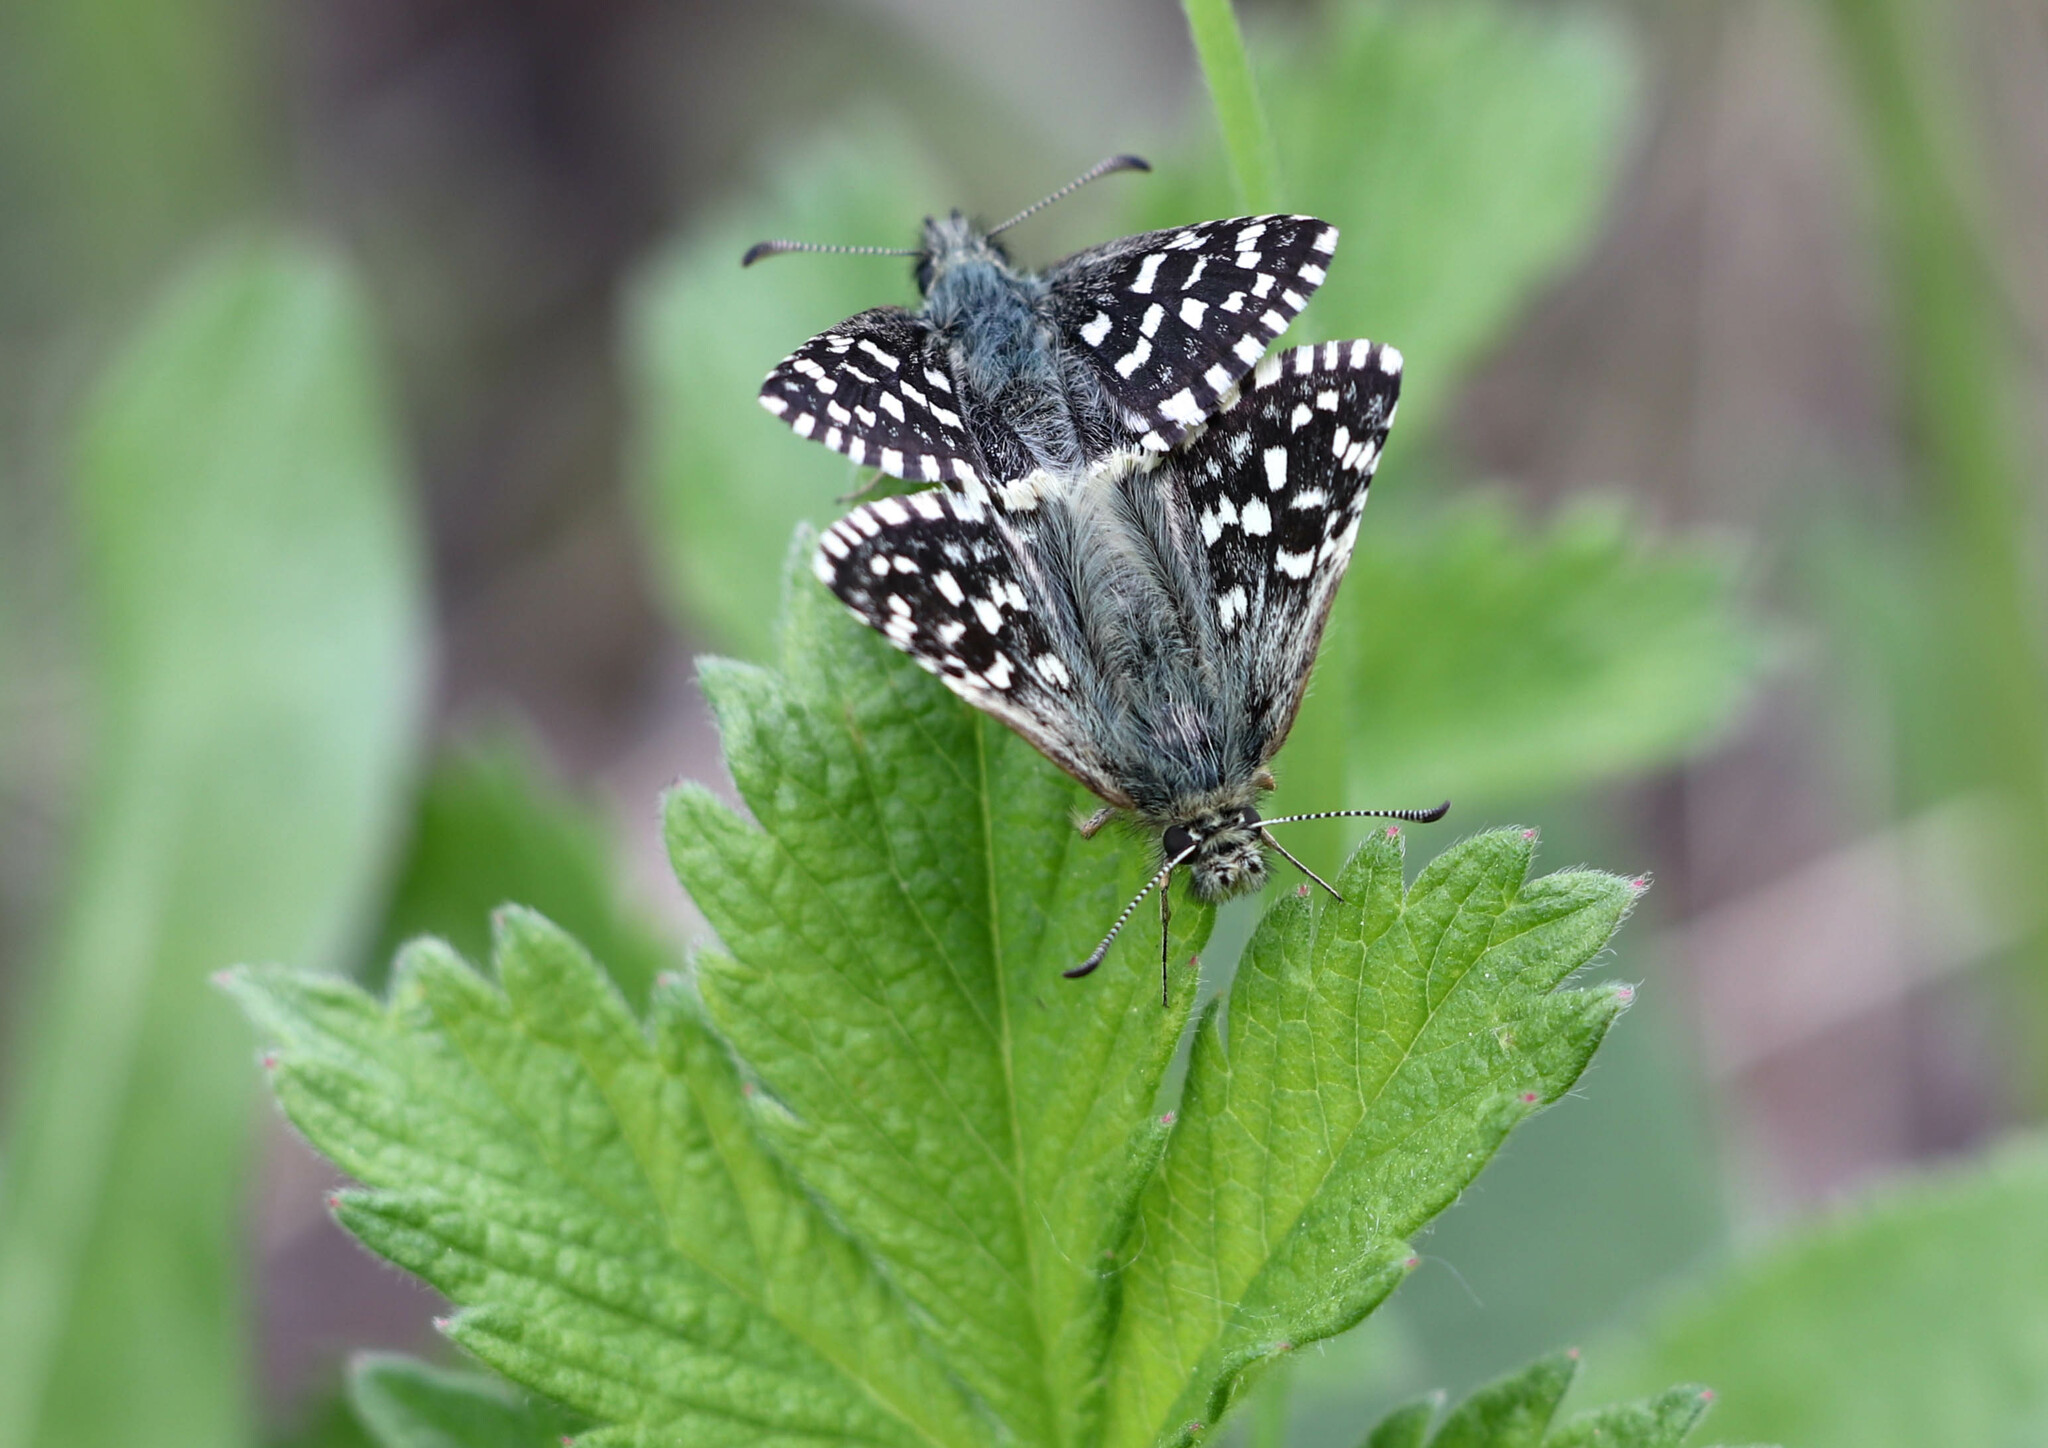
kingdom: Animalia
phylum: Arthropoda
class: Insecta
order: Lepidoptera
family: Hesperiidae
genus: Pyrgus
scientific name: Pyrgus malvae
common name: Grizzled skipper
